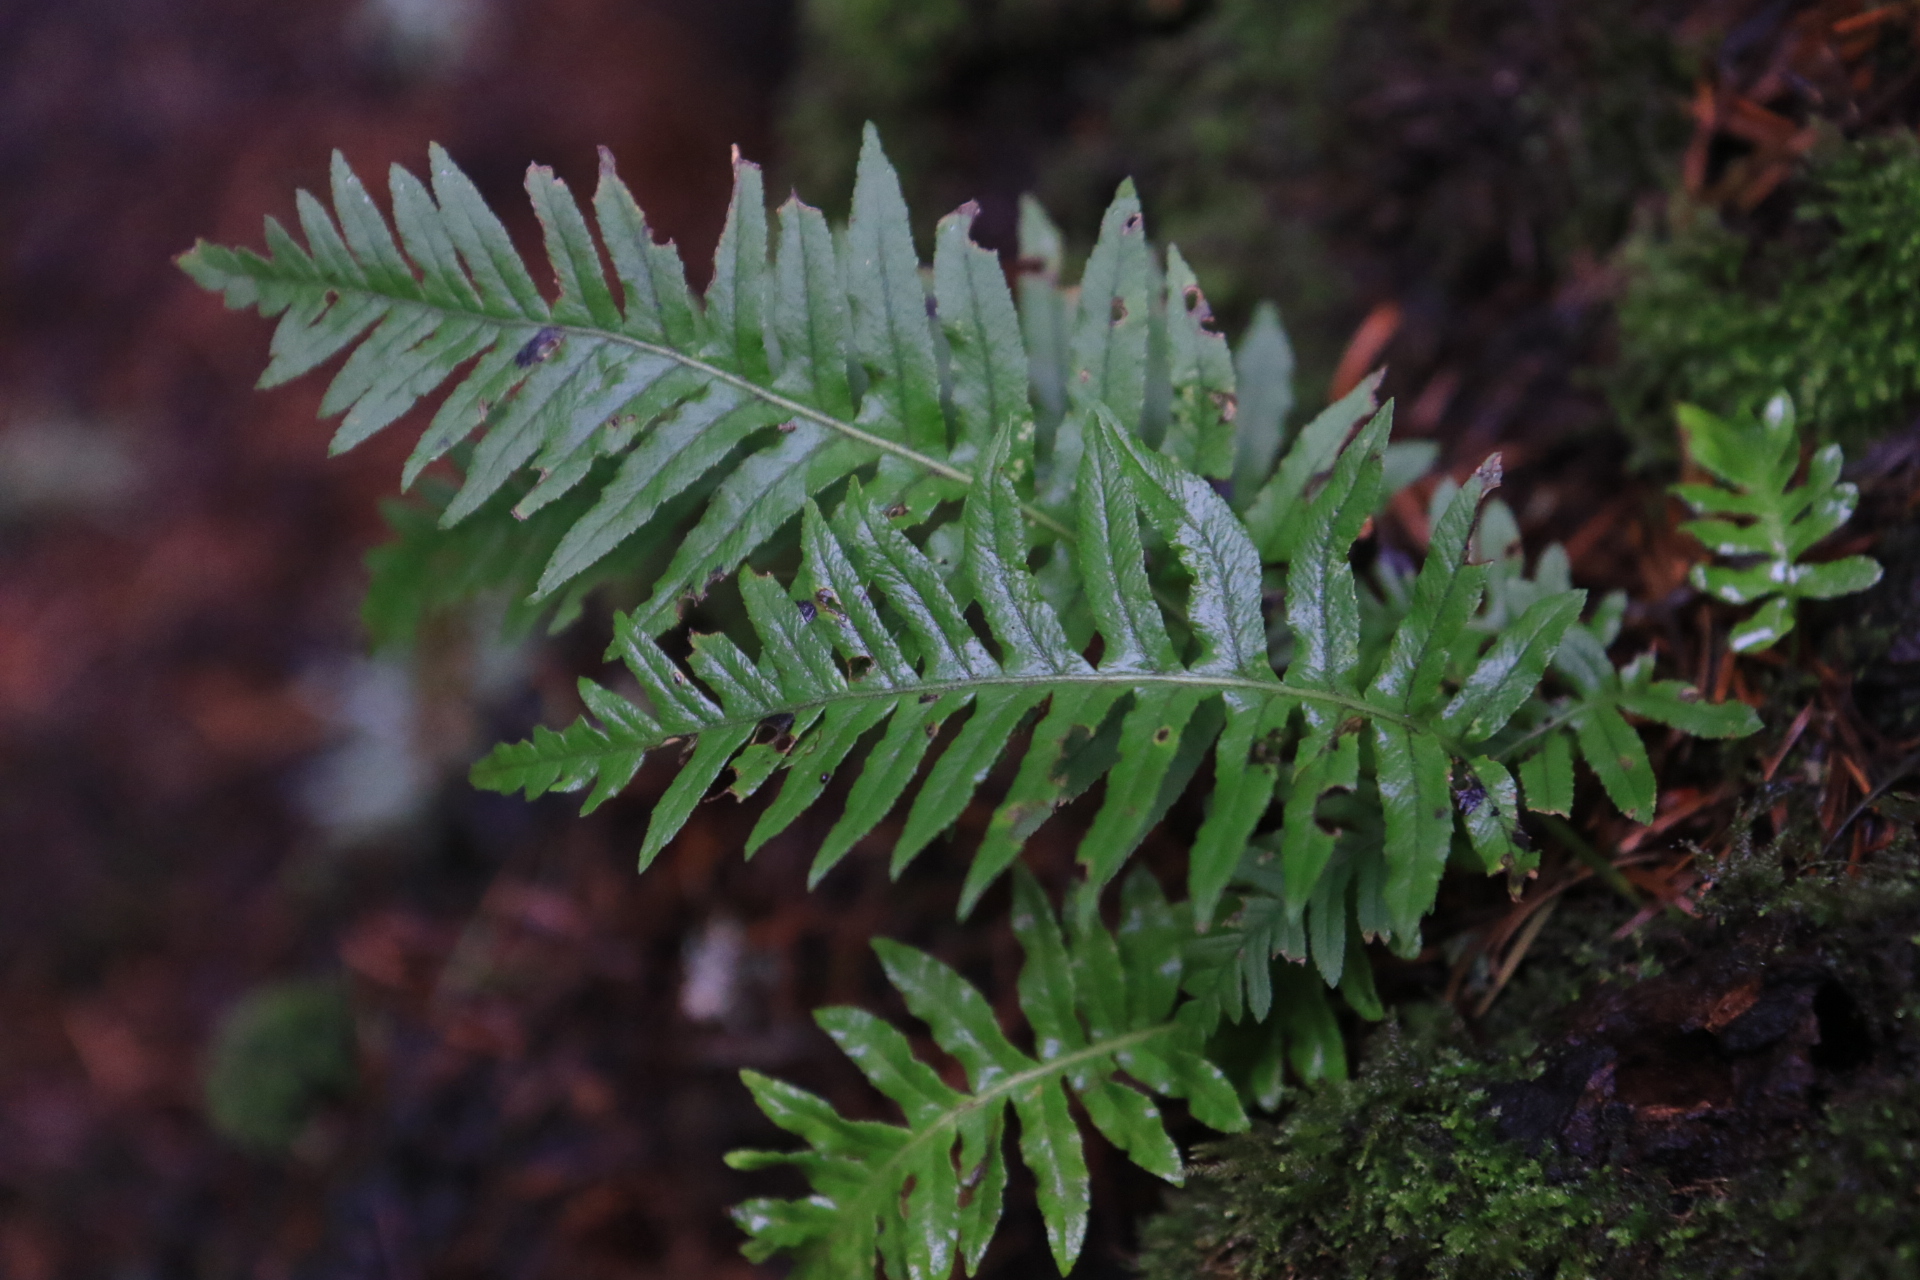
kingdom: Plantae
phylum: Tracheophyta
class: Polypodiopsida
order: Polypodiales
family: Polypodiaceae
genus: Polypodium
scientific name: Polypodium glycyrrhiza
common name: Licorice fern
